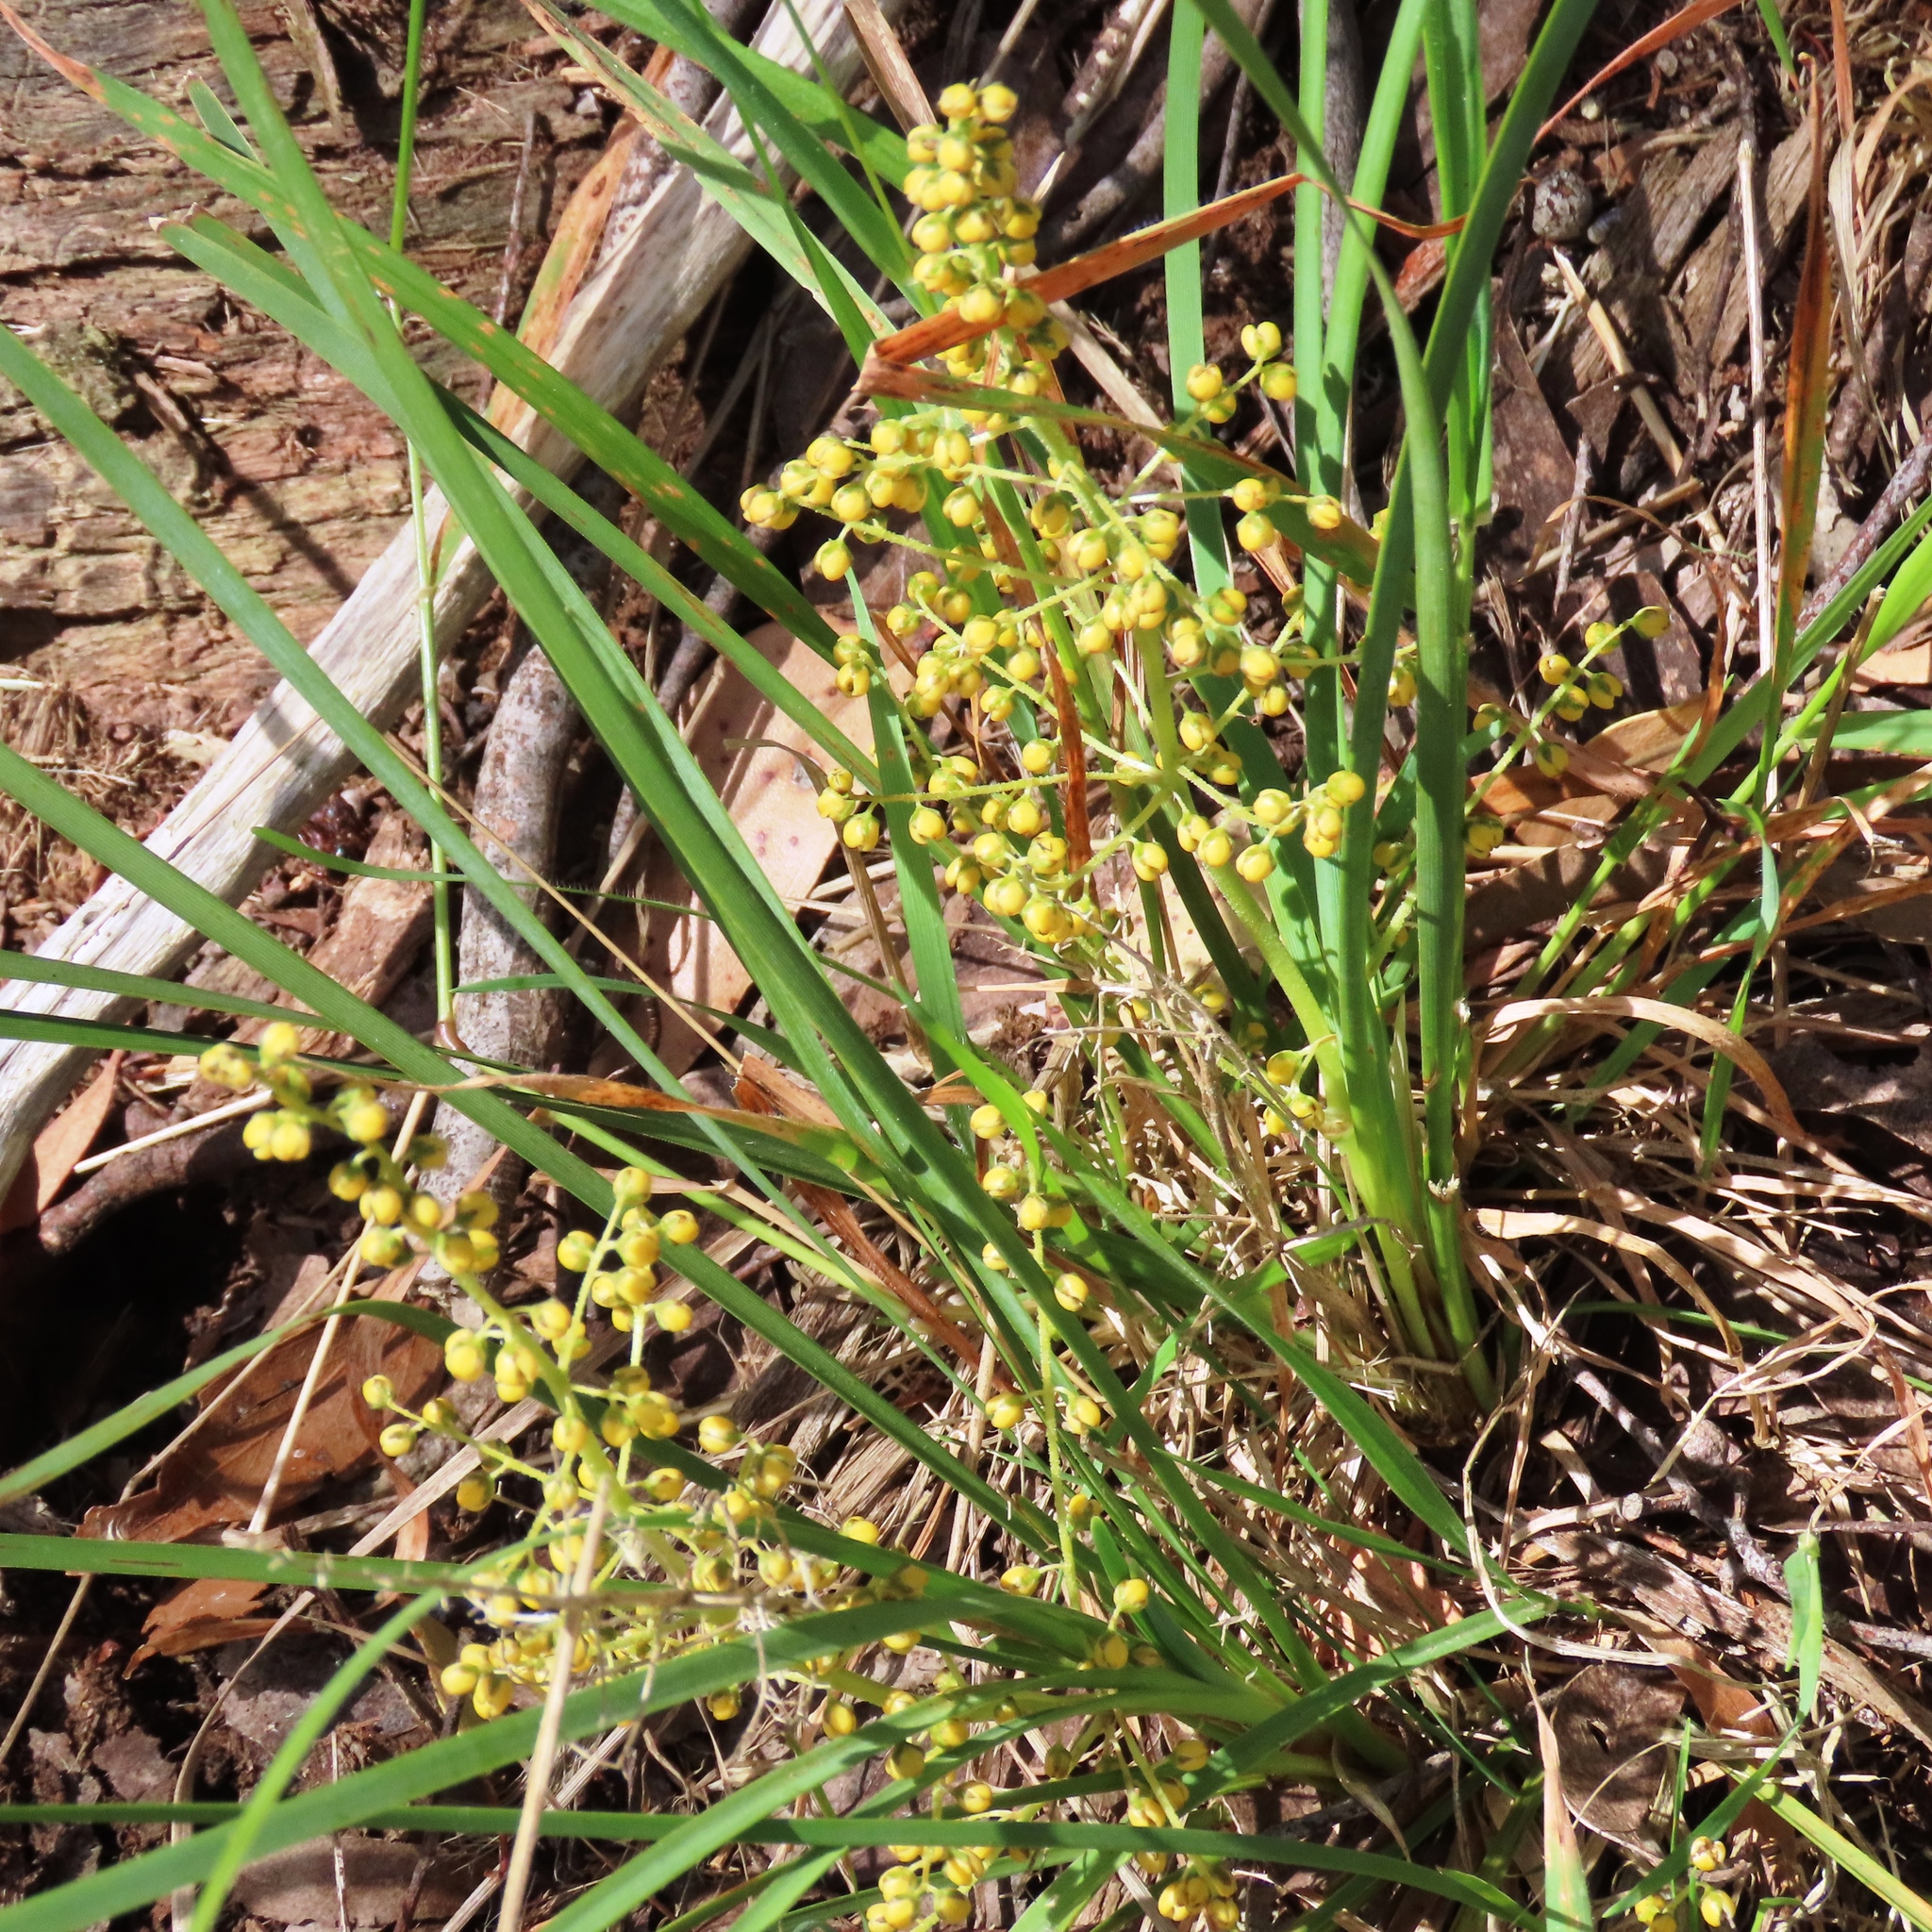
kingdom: Plantae
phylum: Tracheophyta
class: Liliopsida
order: Asparagales
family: Asparagaceae
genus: Lomandra
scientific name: Lomandra filiformis
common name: Wattle mat-rush
